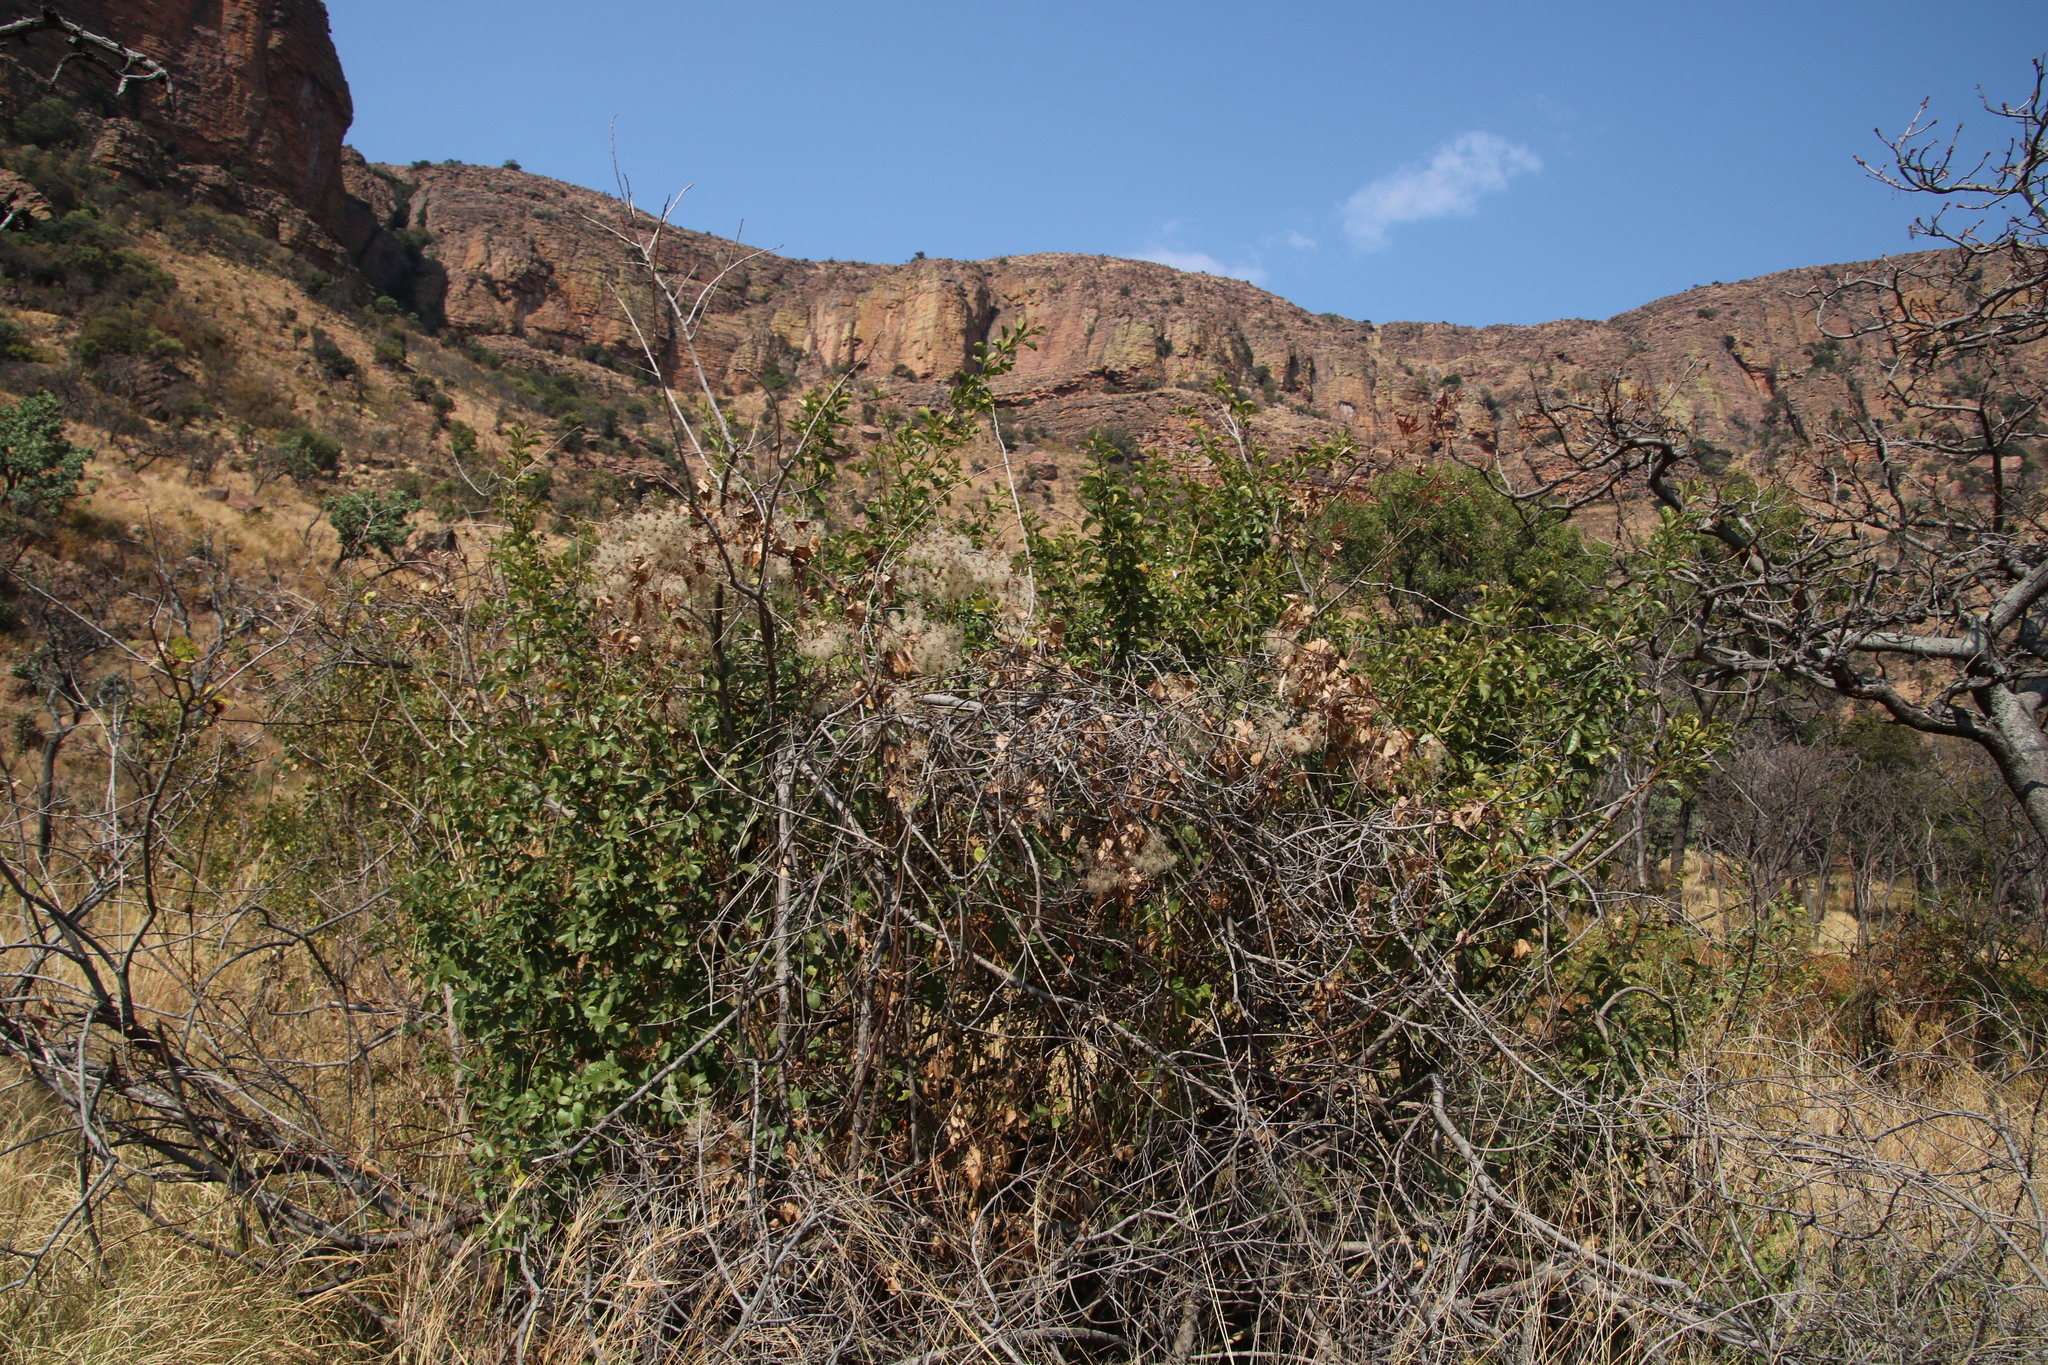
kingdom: Plantae
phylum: Tracheophyta
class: Magnoliopsida
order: Ranunculales
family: Ranunculaceae
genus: Clematis
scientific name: Clematis brachiata
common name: Traveler's-joy
